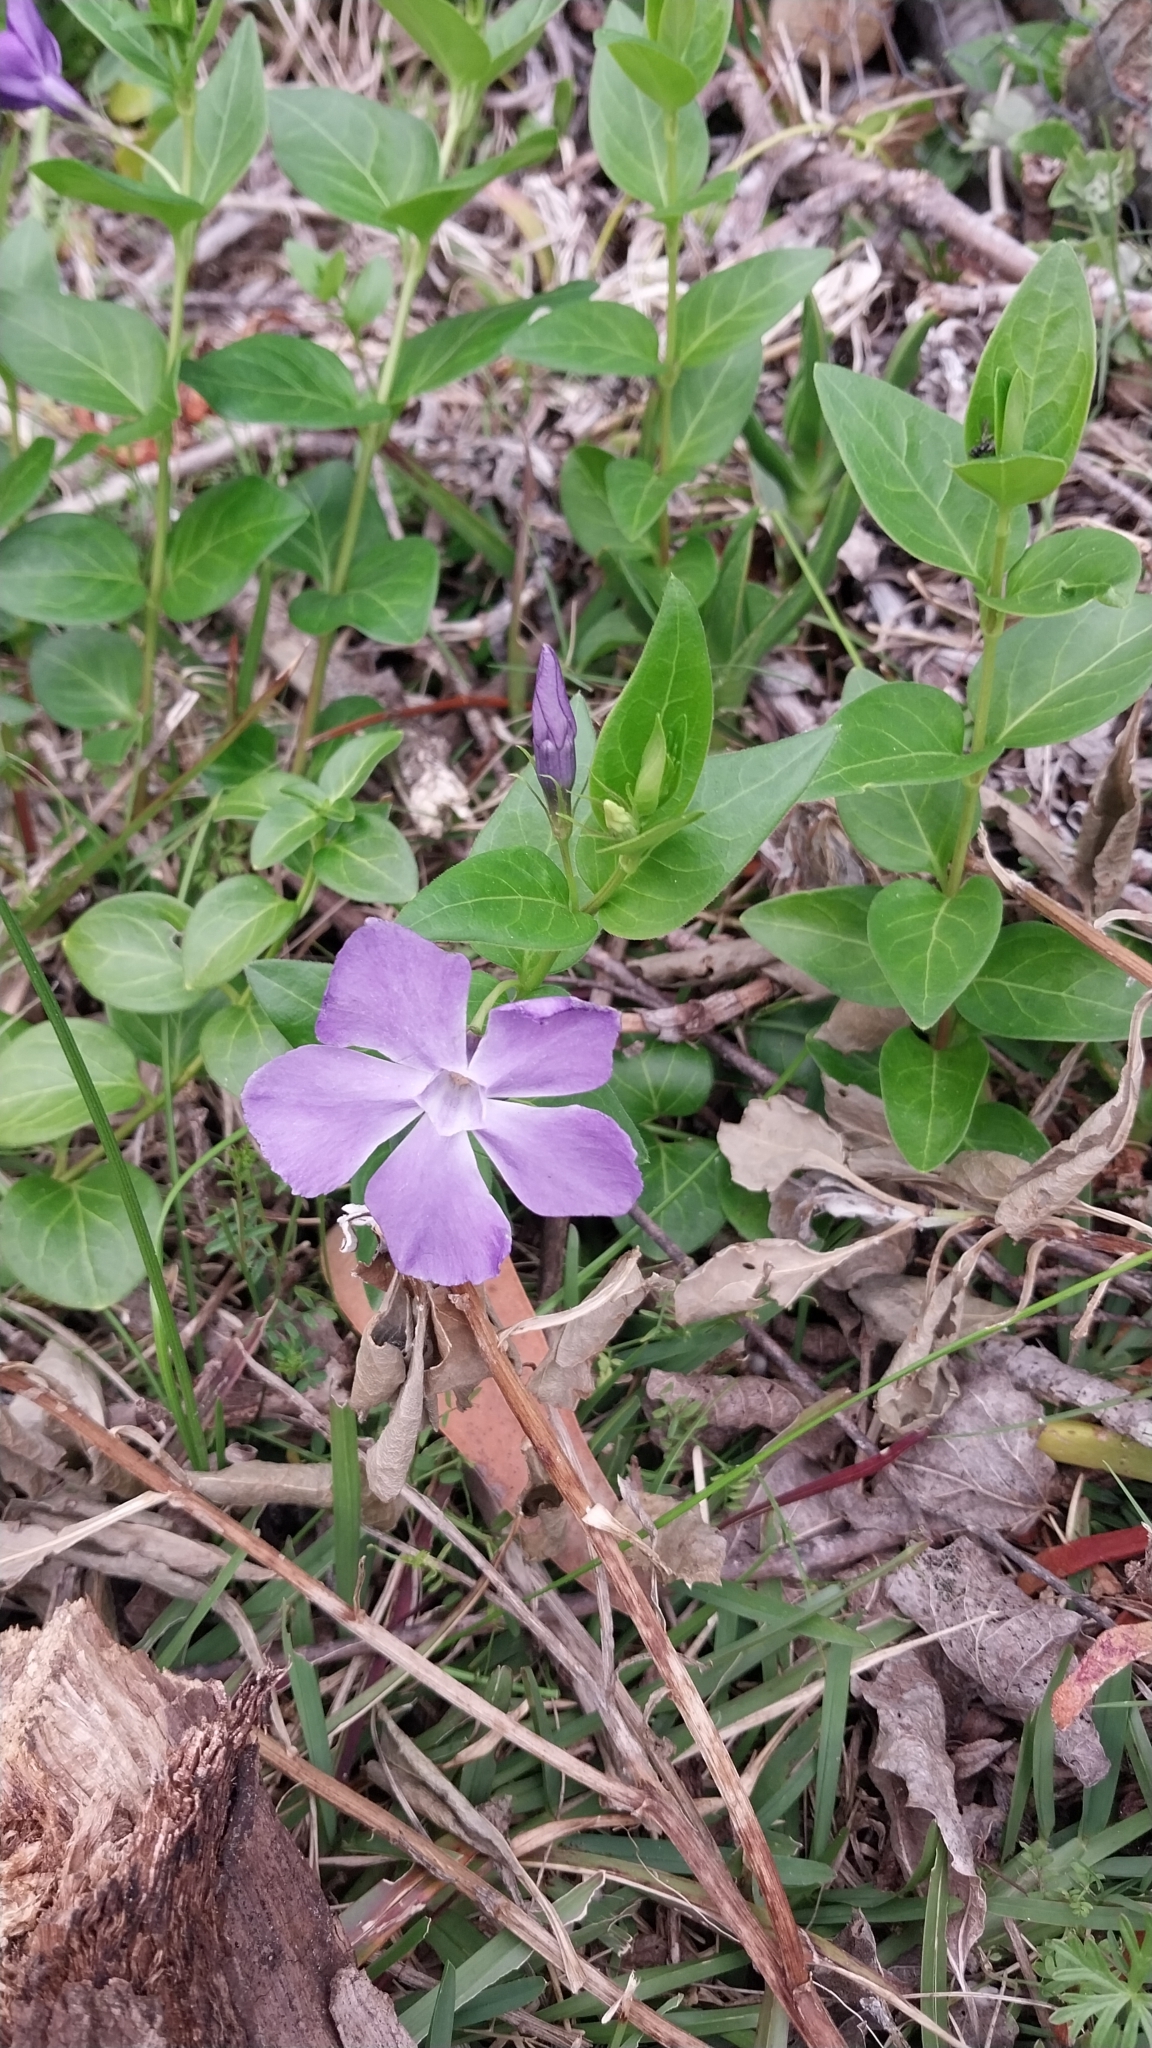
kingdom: Plantae
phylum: Tracheophyta
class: Magnoliopsida
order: Gentianales
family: Apocynaceae
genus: Vinca
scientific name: Vinca major
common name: Greater periwinkle
